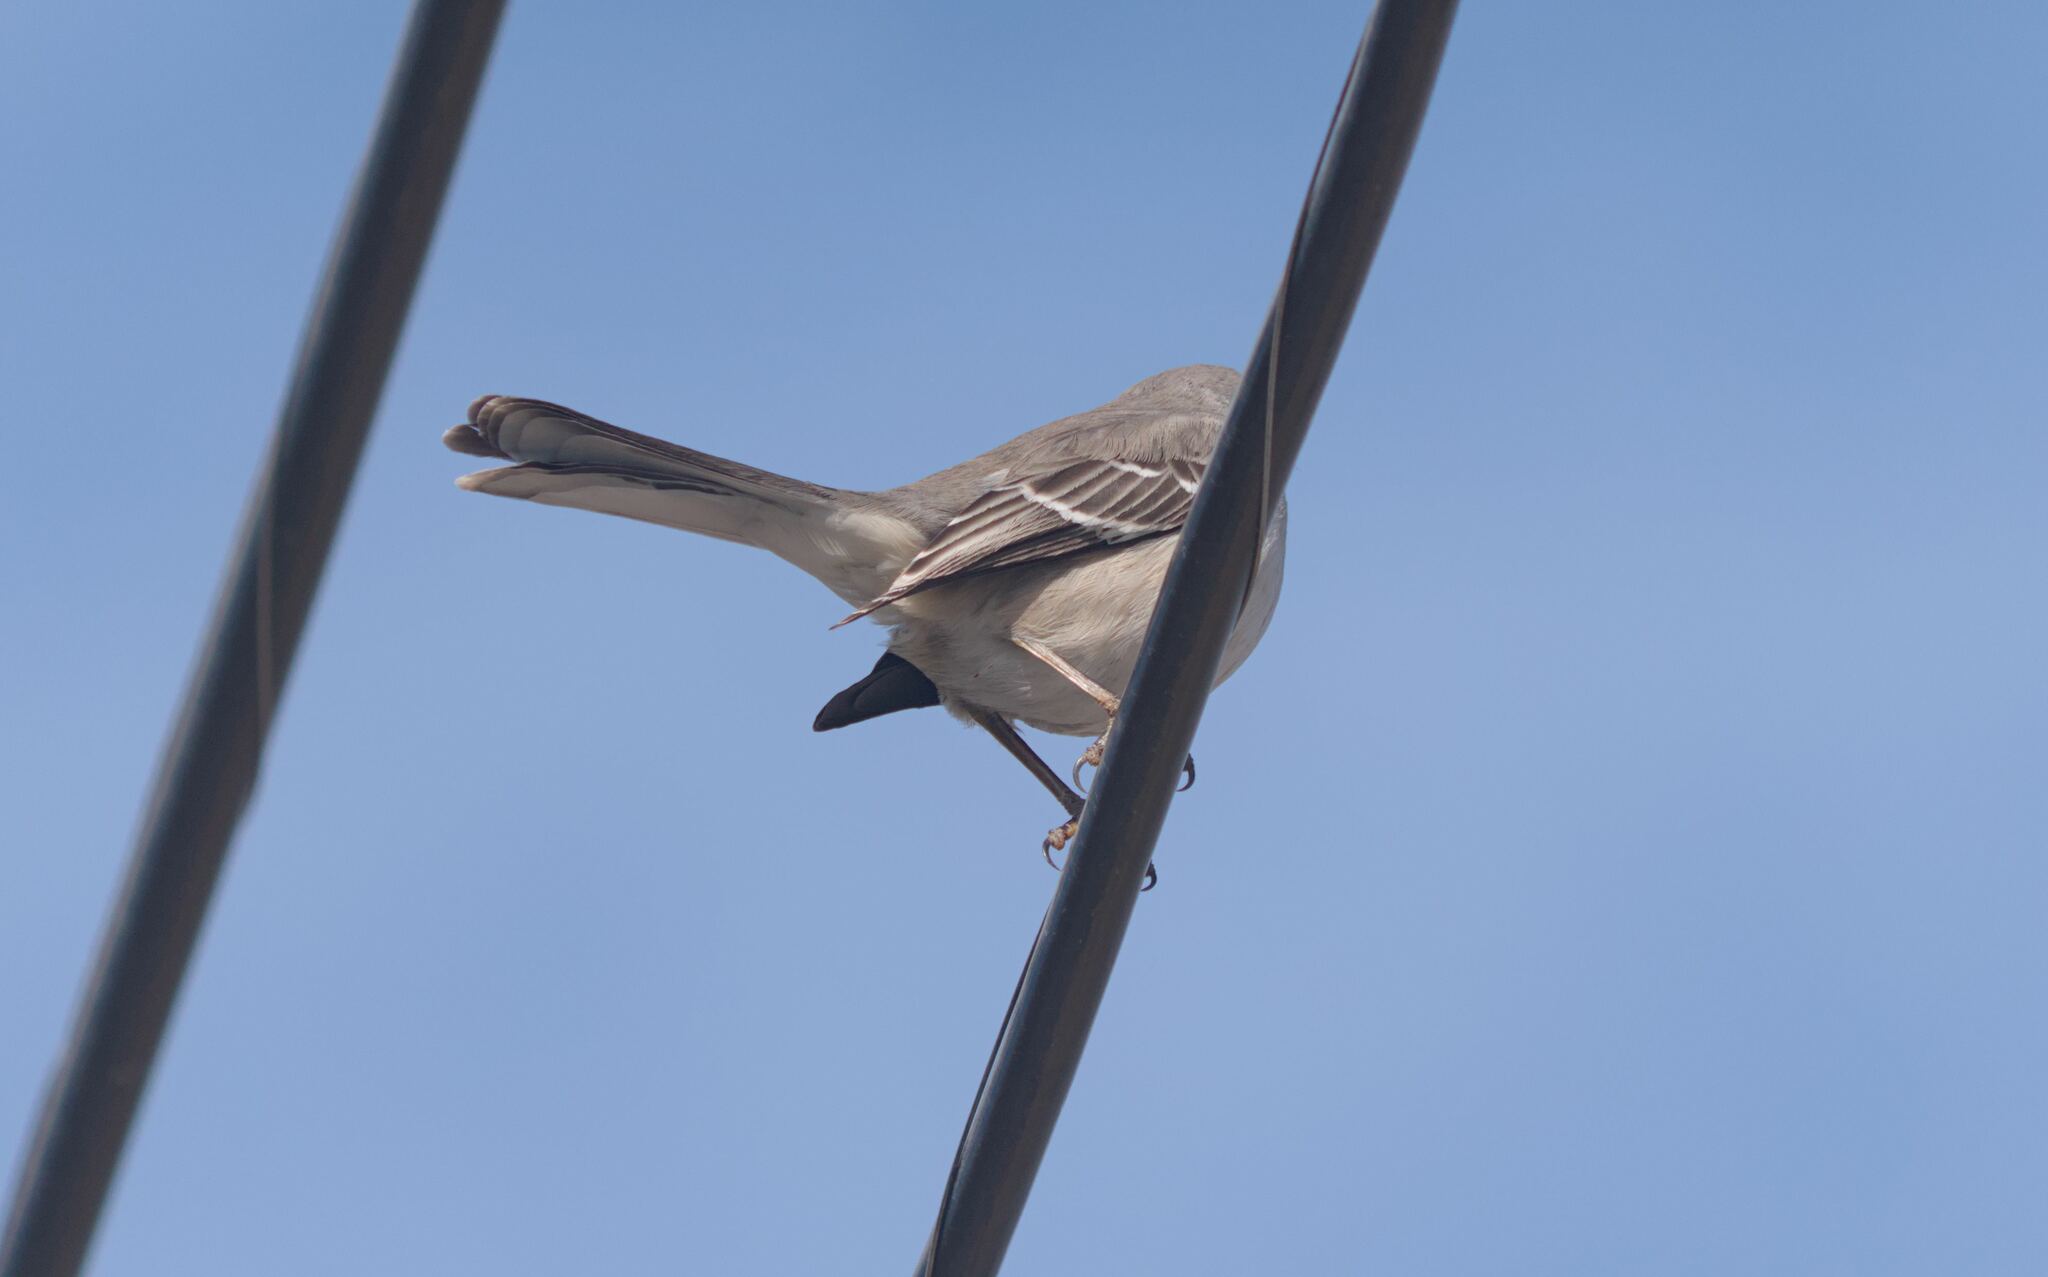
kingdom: Animalia
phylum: Chordata
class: Aves
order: Passeriformes
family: Mimidae
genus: Mimus
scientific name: Mimus polyglottos
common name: Northern mockingbird
